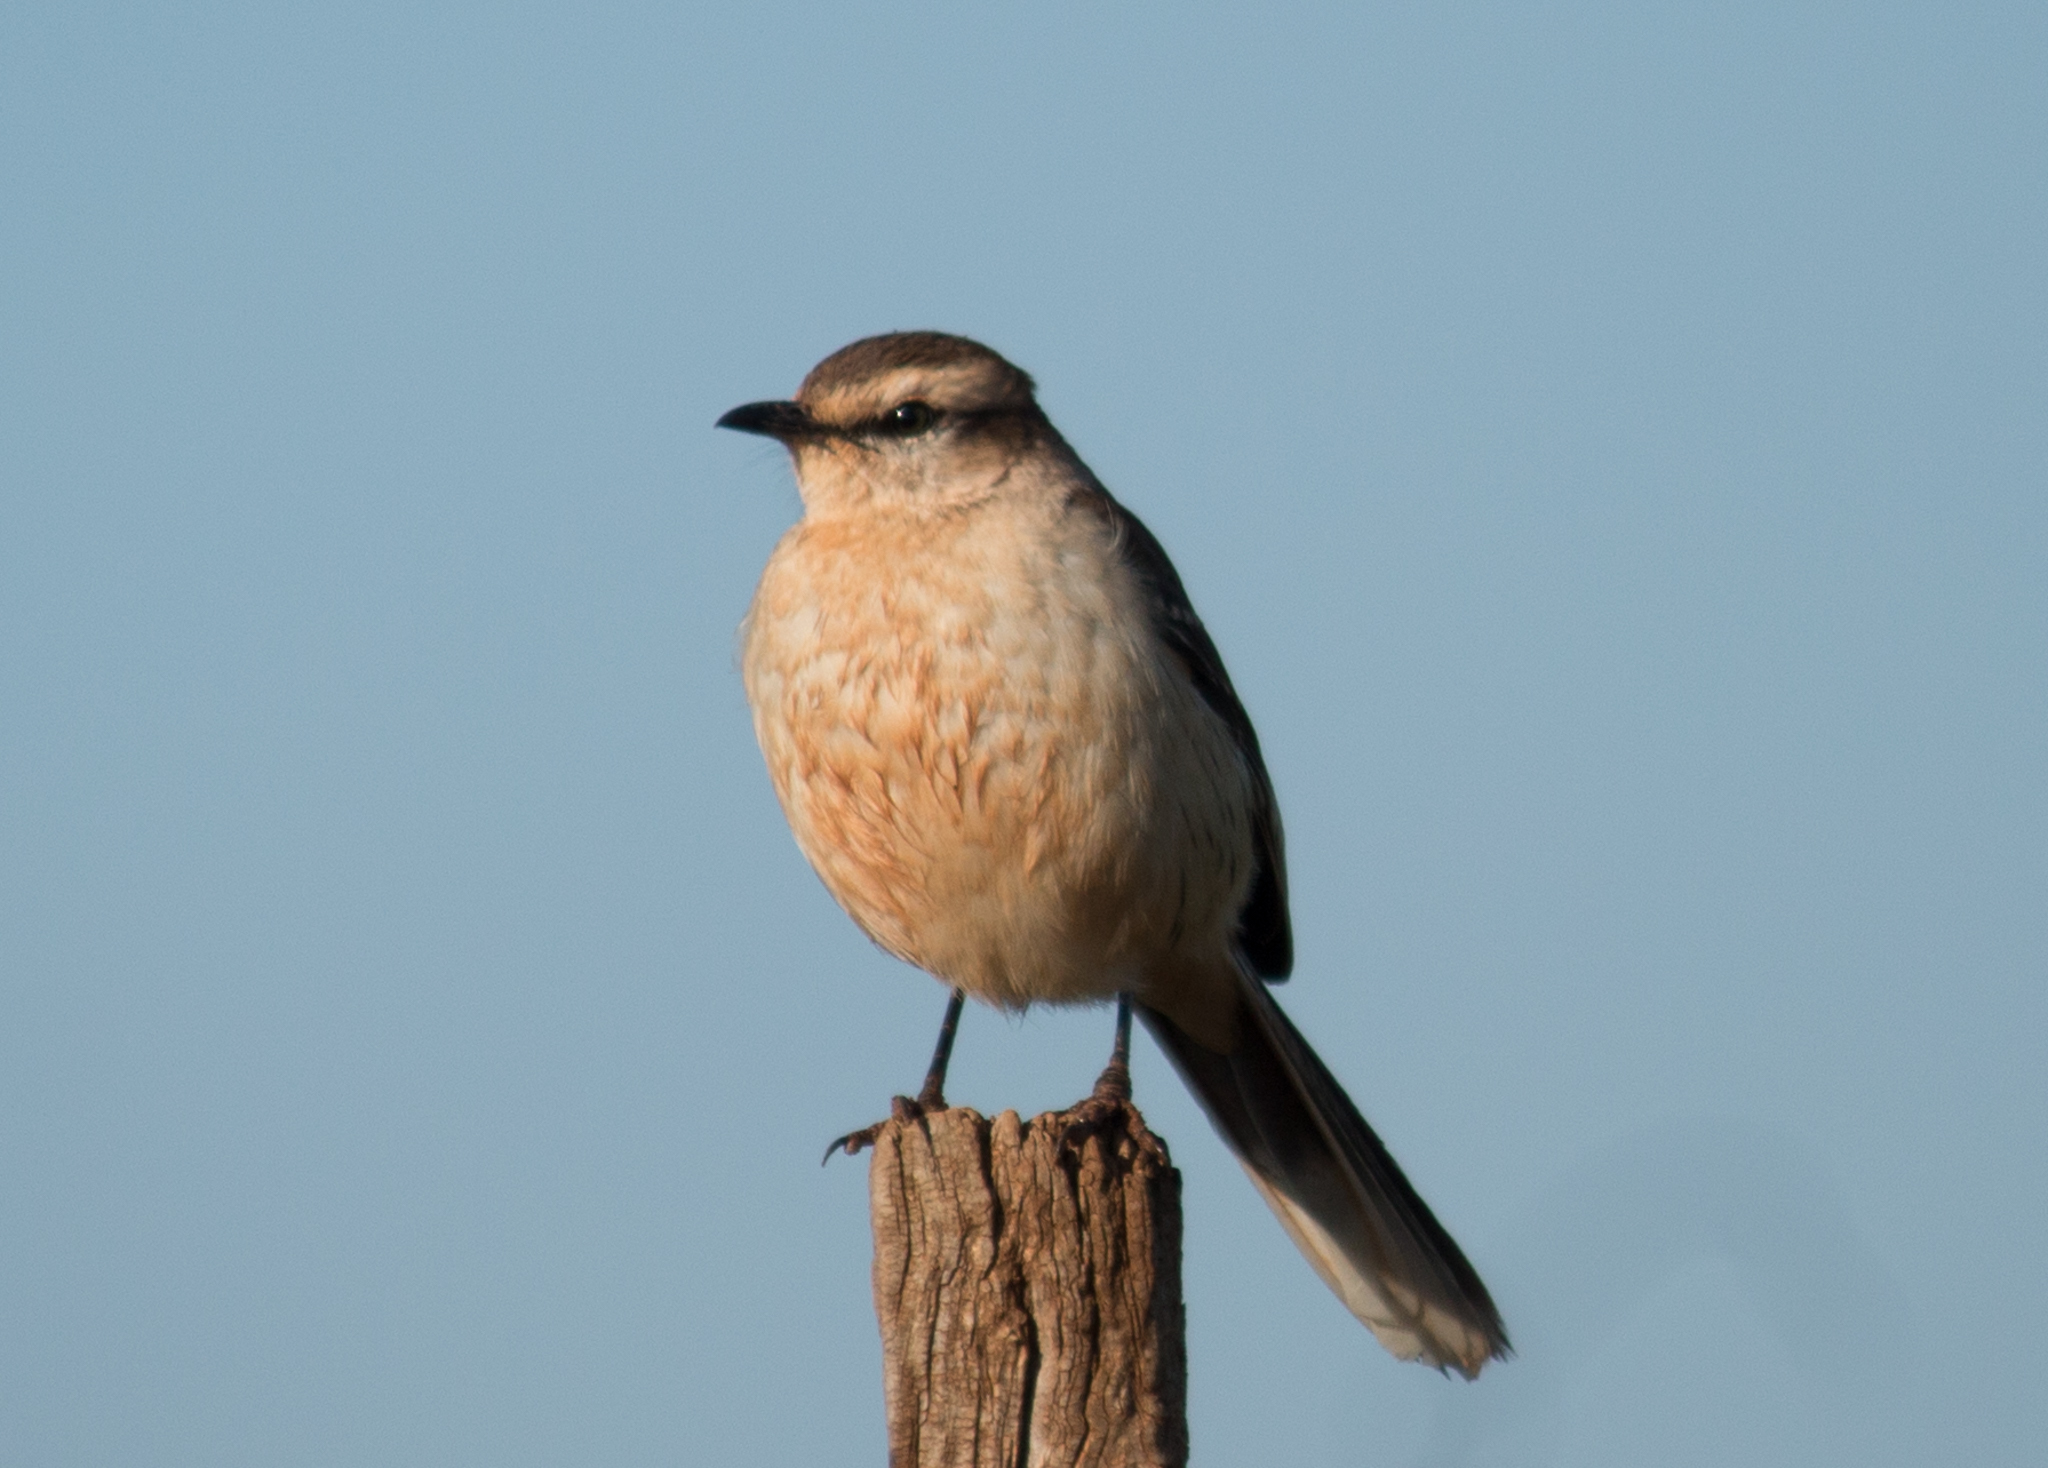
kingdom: Animalia
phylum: Chordata
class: Aves
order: Passeriformes
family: Mimidae
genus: Mimus
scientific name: Mimus saturninus
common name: Chalk-browed mockingbird
